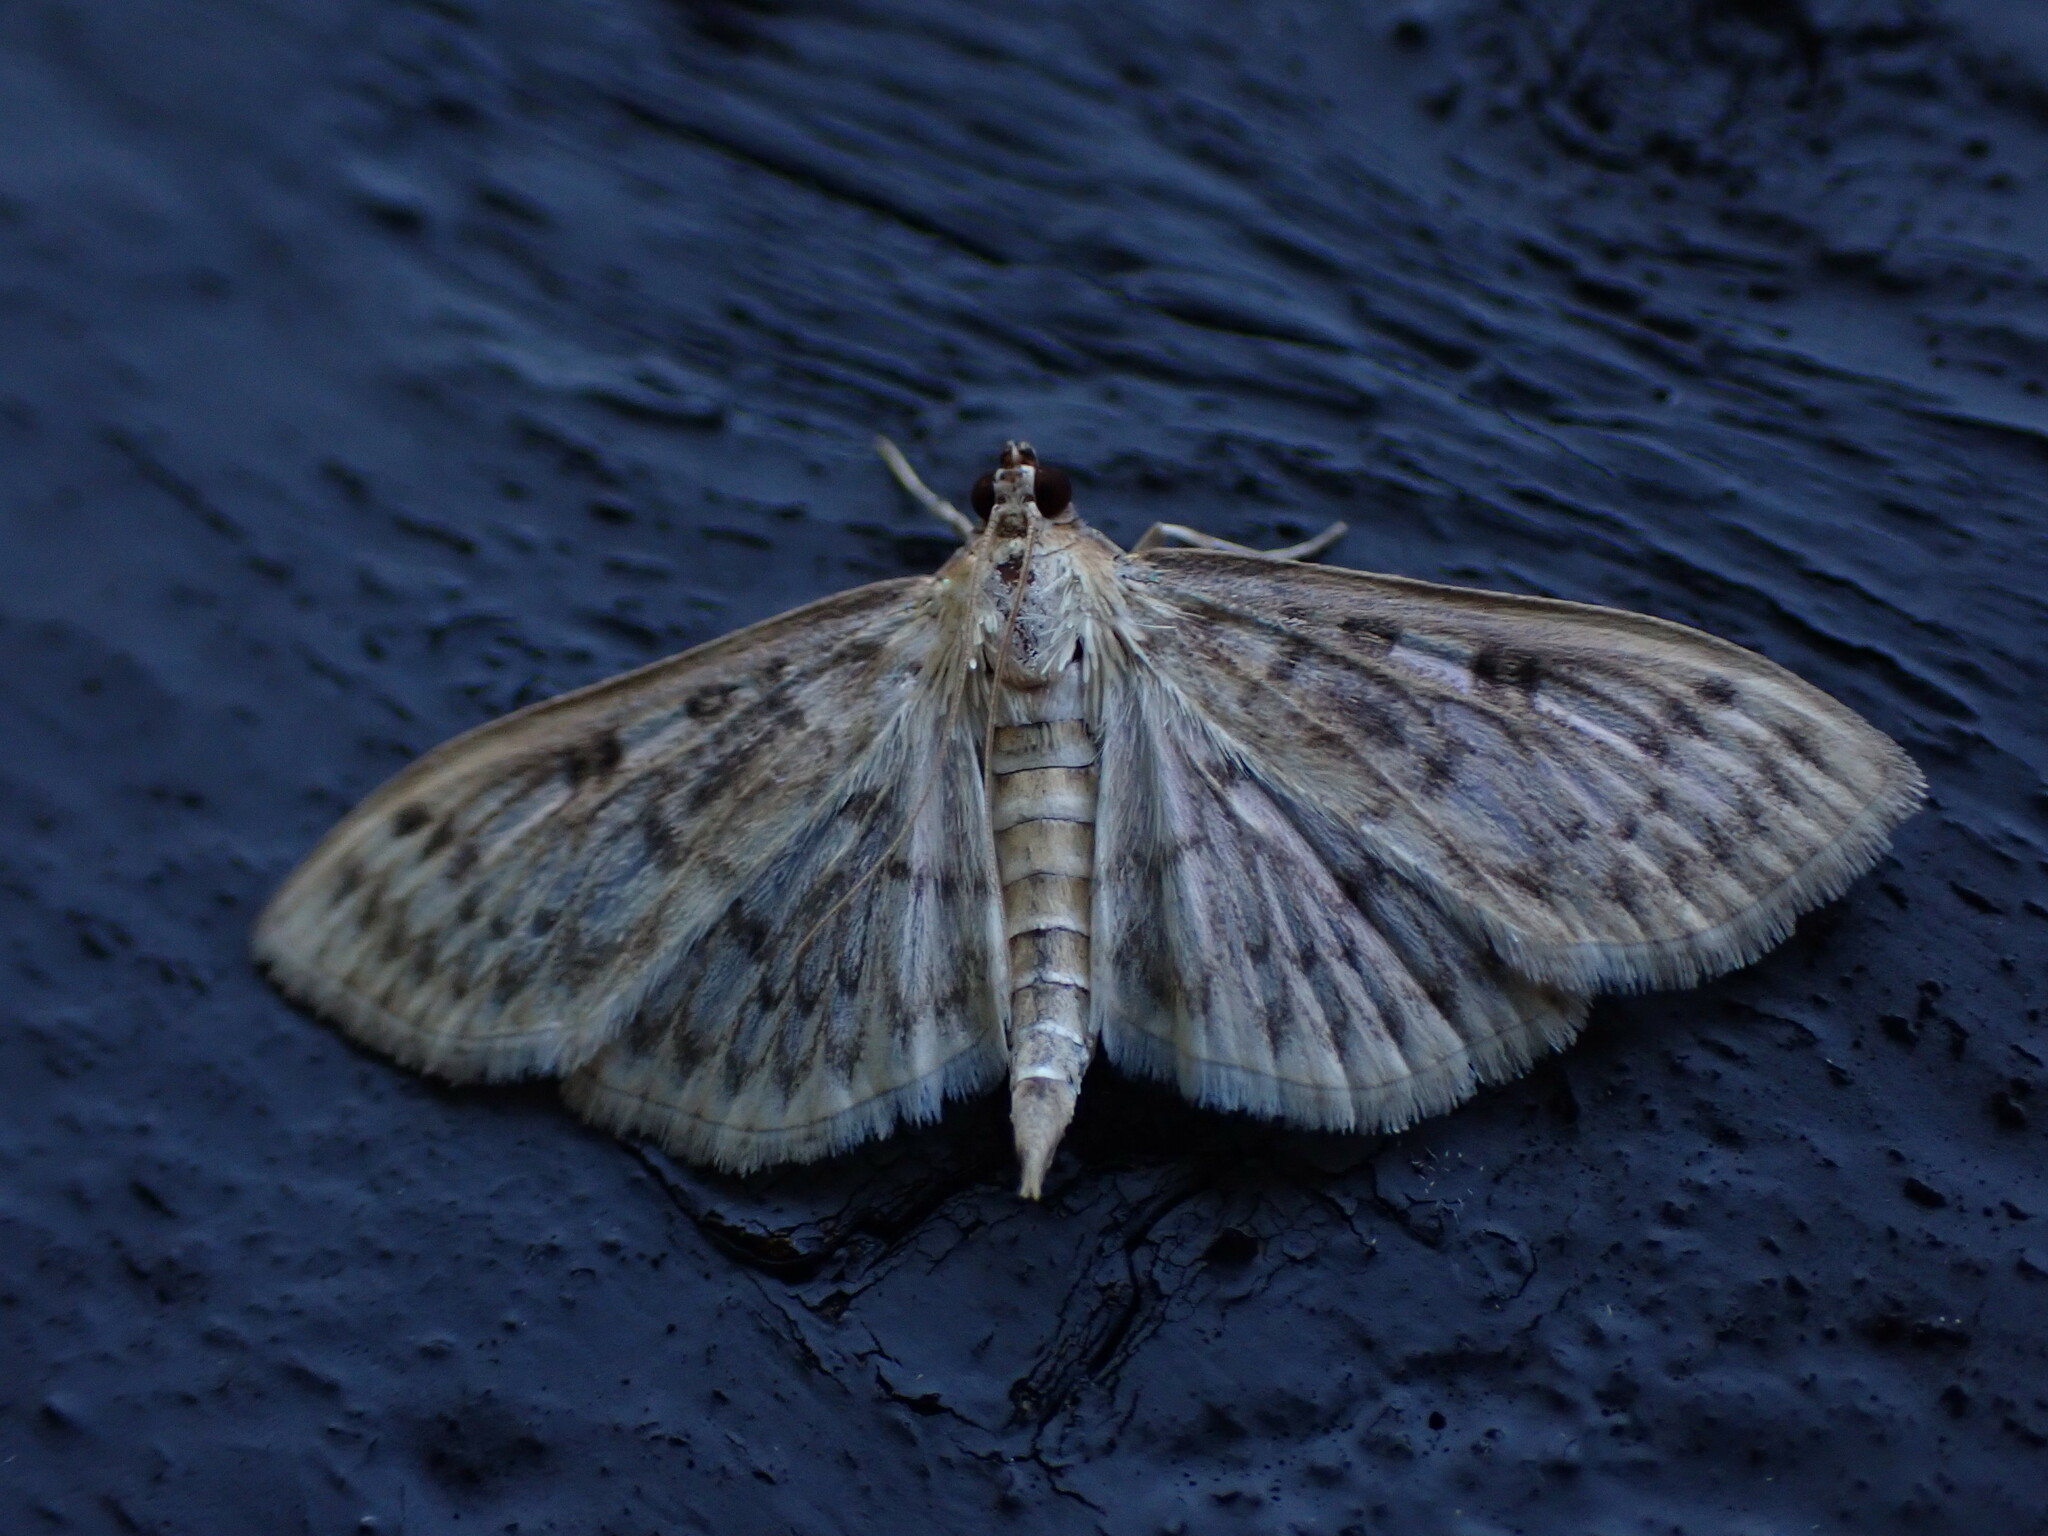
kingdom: Animalia
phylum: Arthropoda
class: Insecta
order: Lepidoptera
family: Crambidae
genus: Herpetogramma
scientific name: Herpetogramma aquilonalis
